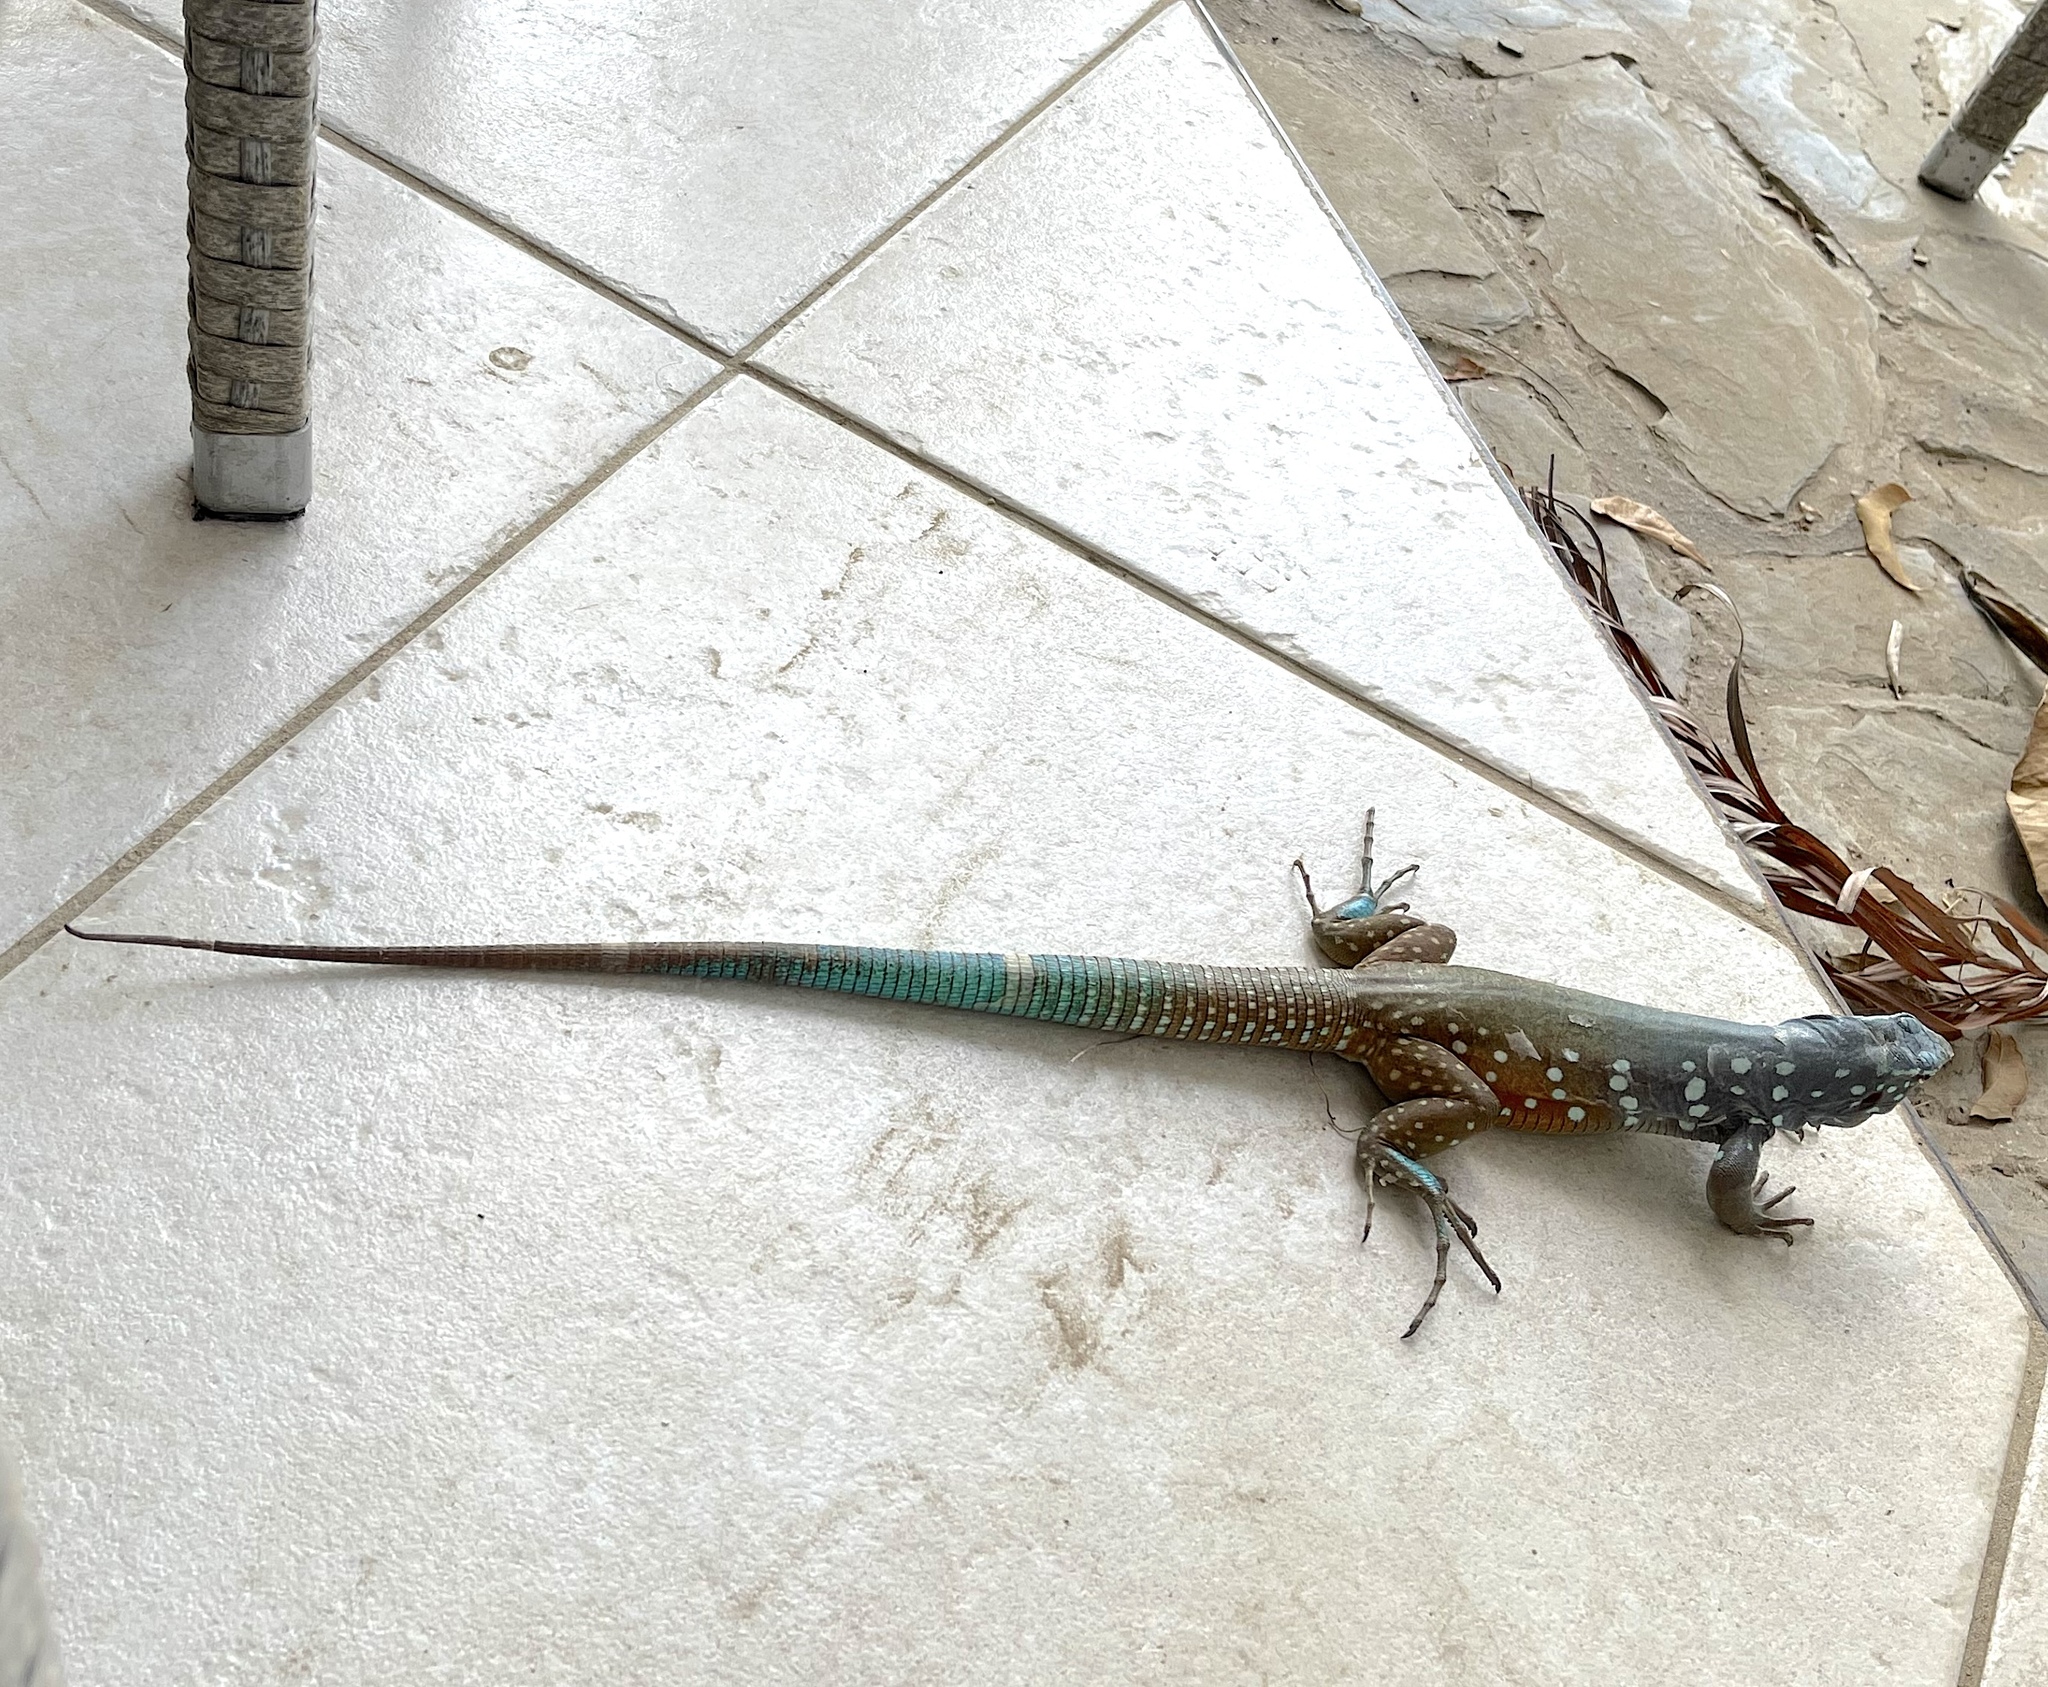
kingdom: Animalia
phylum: Chordata
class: Squamata
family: Teiidae
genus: Cnemidophorus
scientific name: Cnemidophorus ruthveni
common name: Bonaire whiptail
